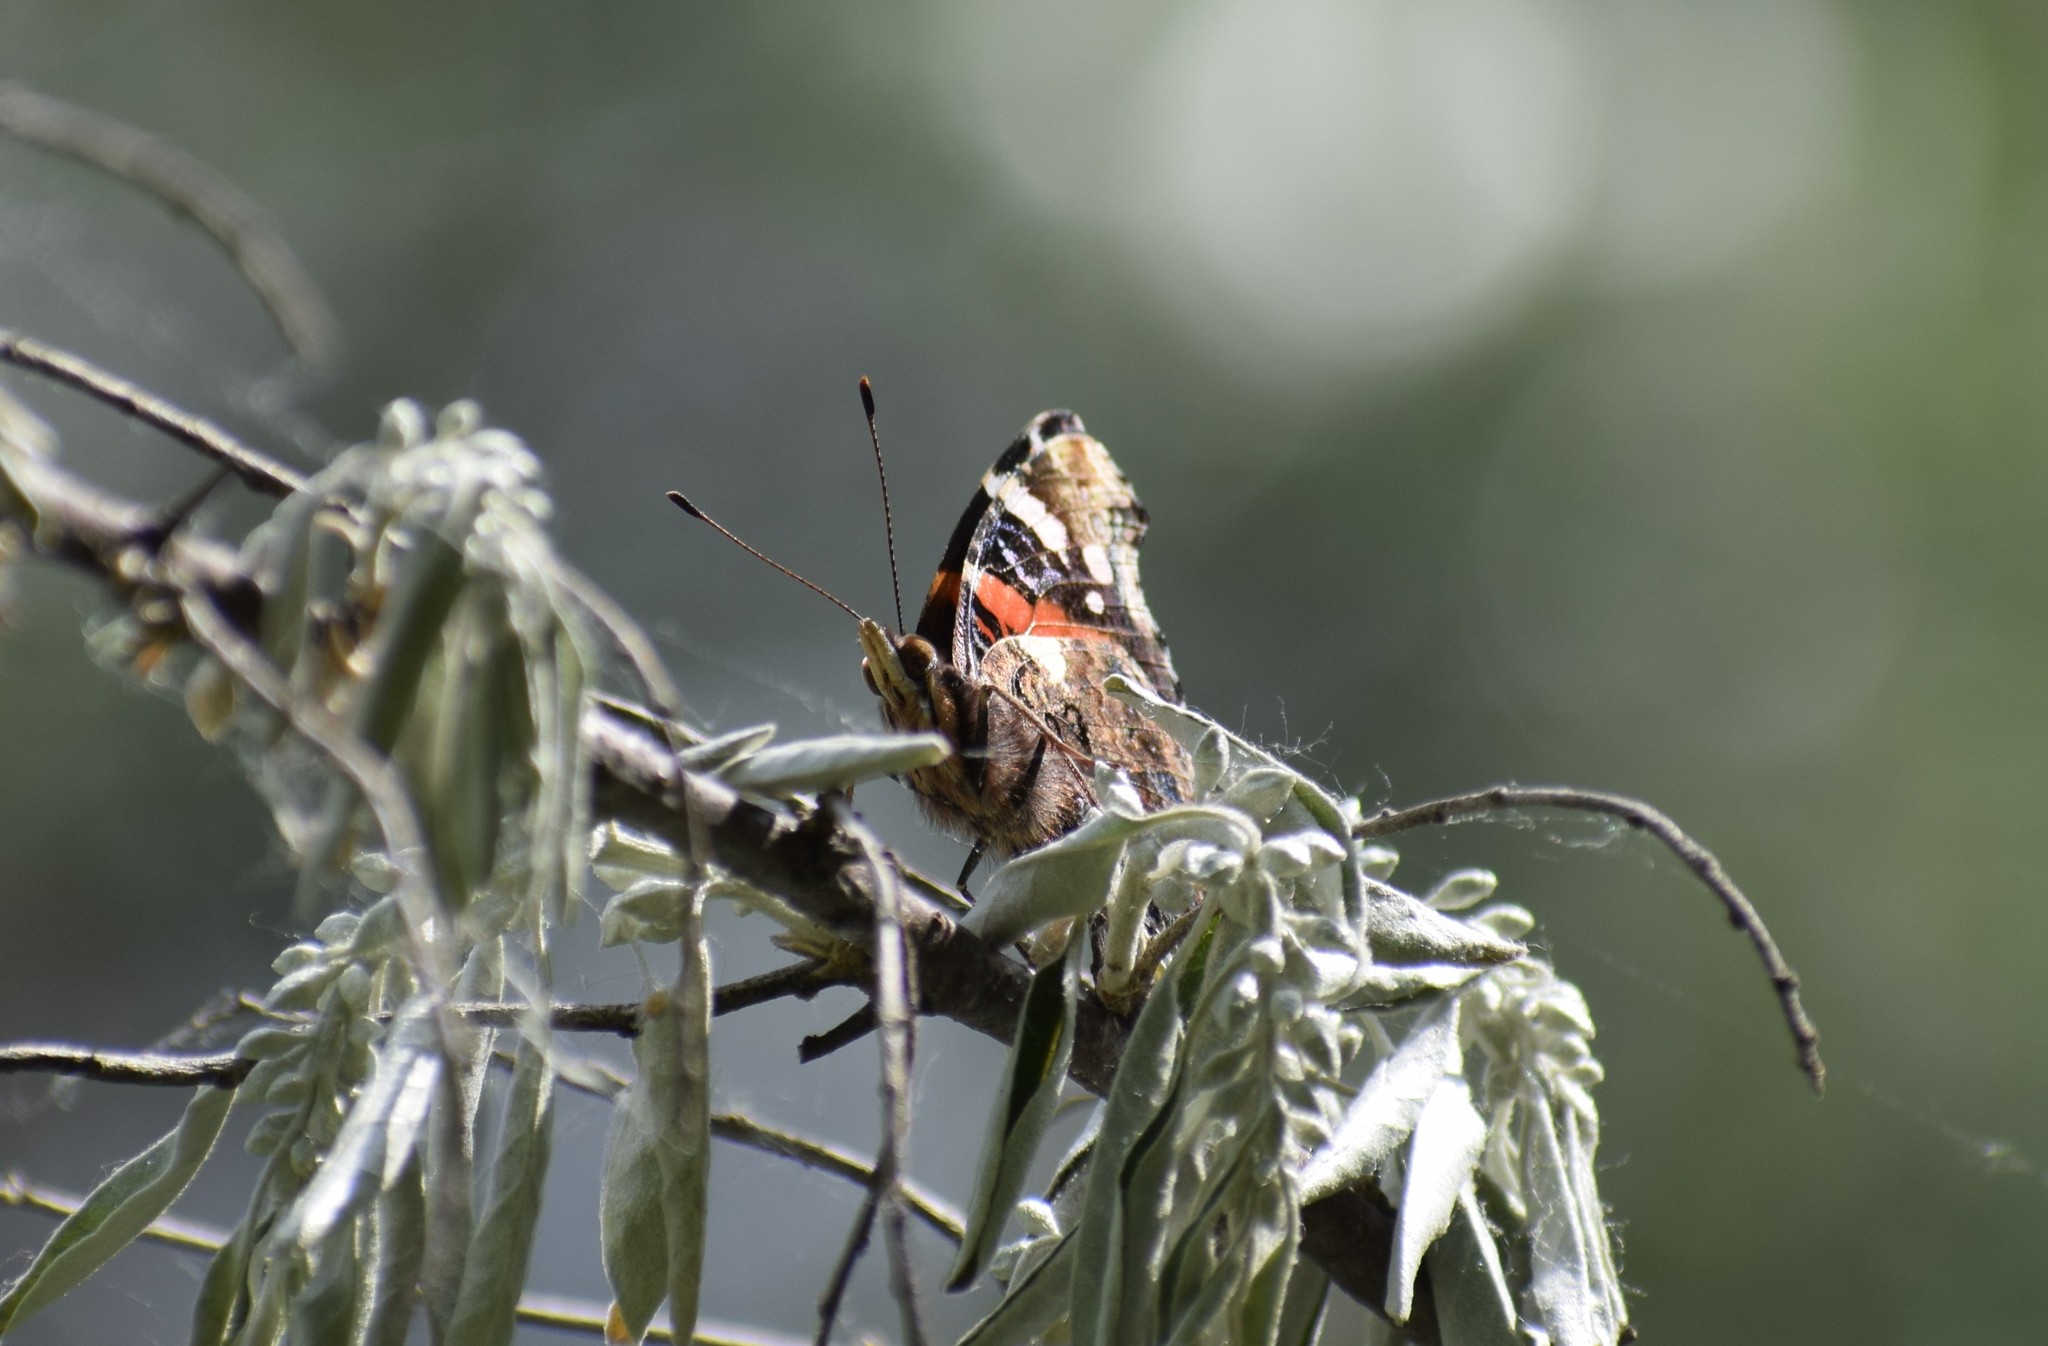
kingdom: Animalia
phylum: Arthropoda
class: Insecta
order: Lepidoptera
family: Nymphalidae
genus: Vanessa
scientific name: Vanessa atalanta
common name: Red admiral
